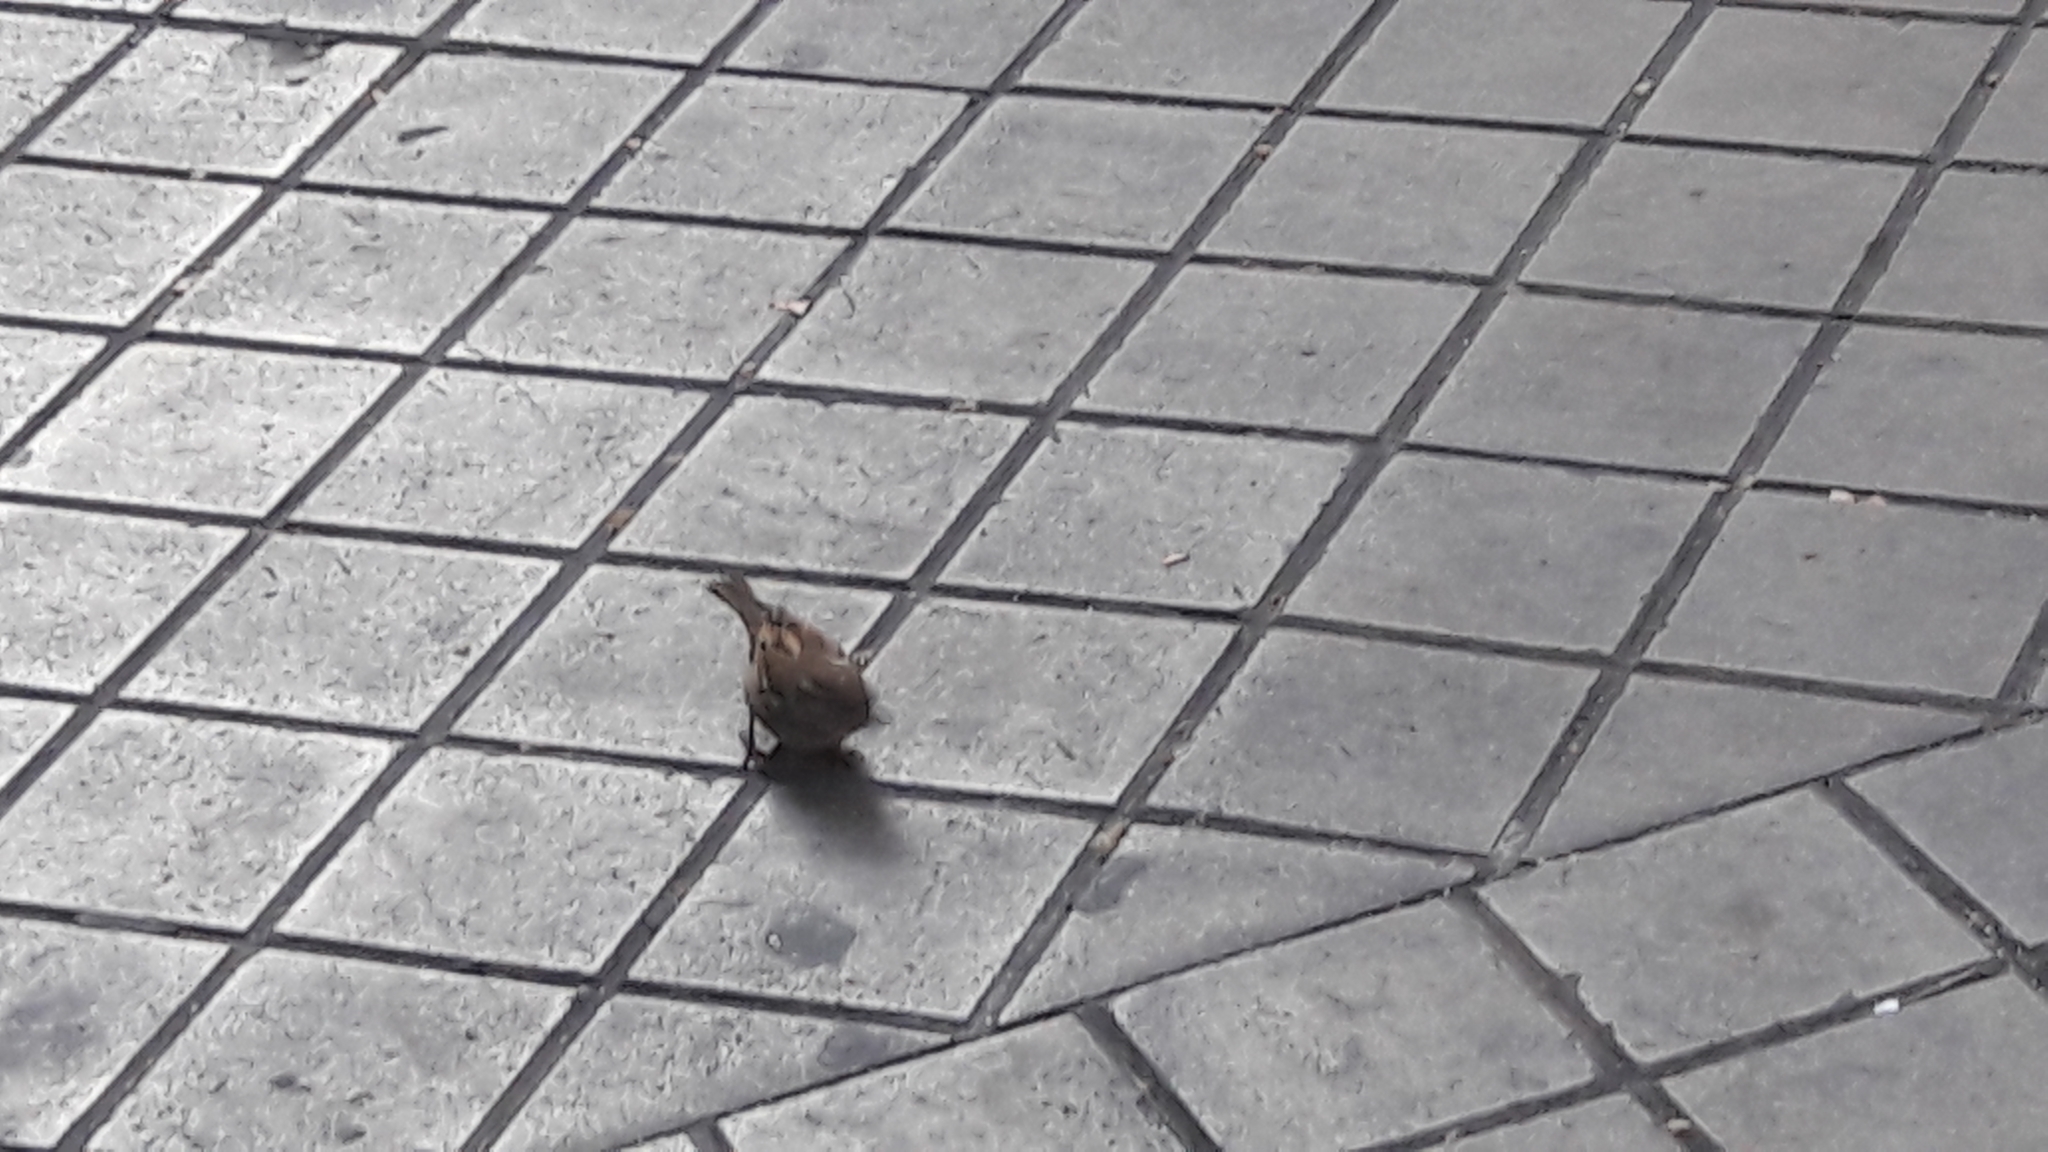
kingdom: Animalia
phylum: Chordata
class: Aves
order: Passeriformes
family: Passeridae
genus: Passer
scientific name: Passer domesticus
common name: House sparrow
